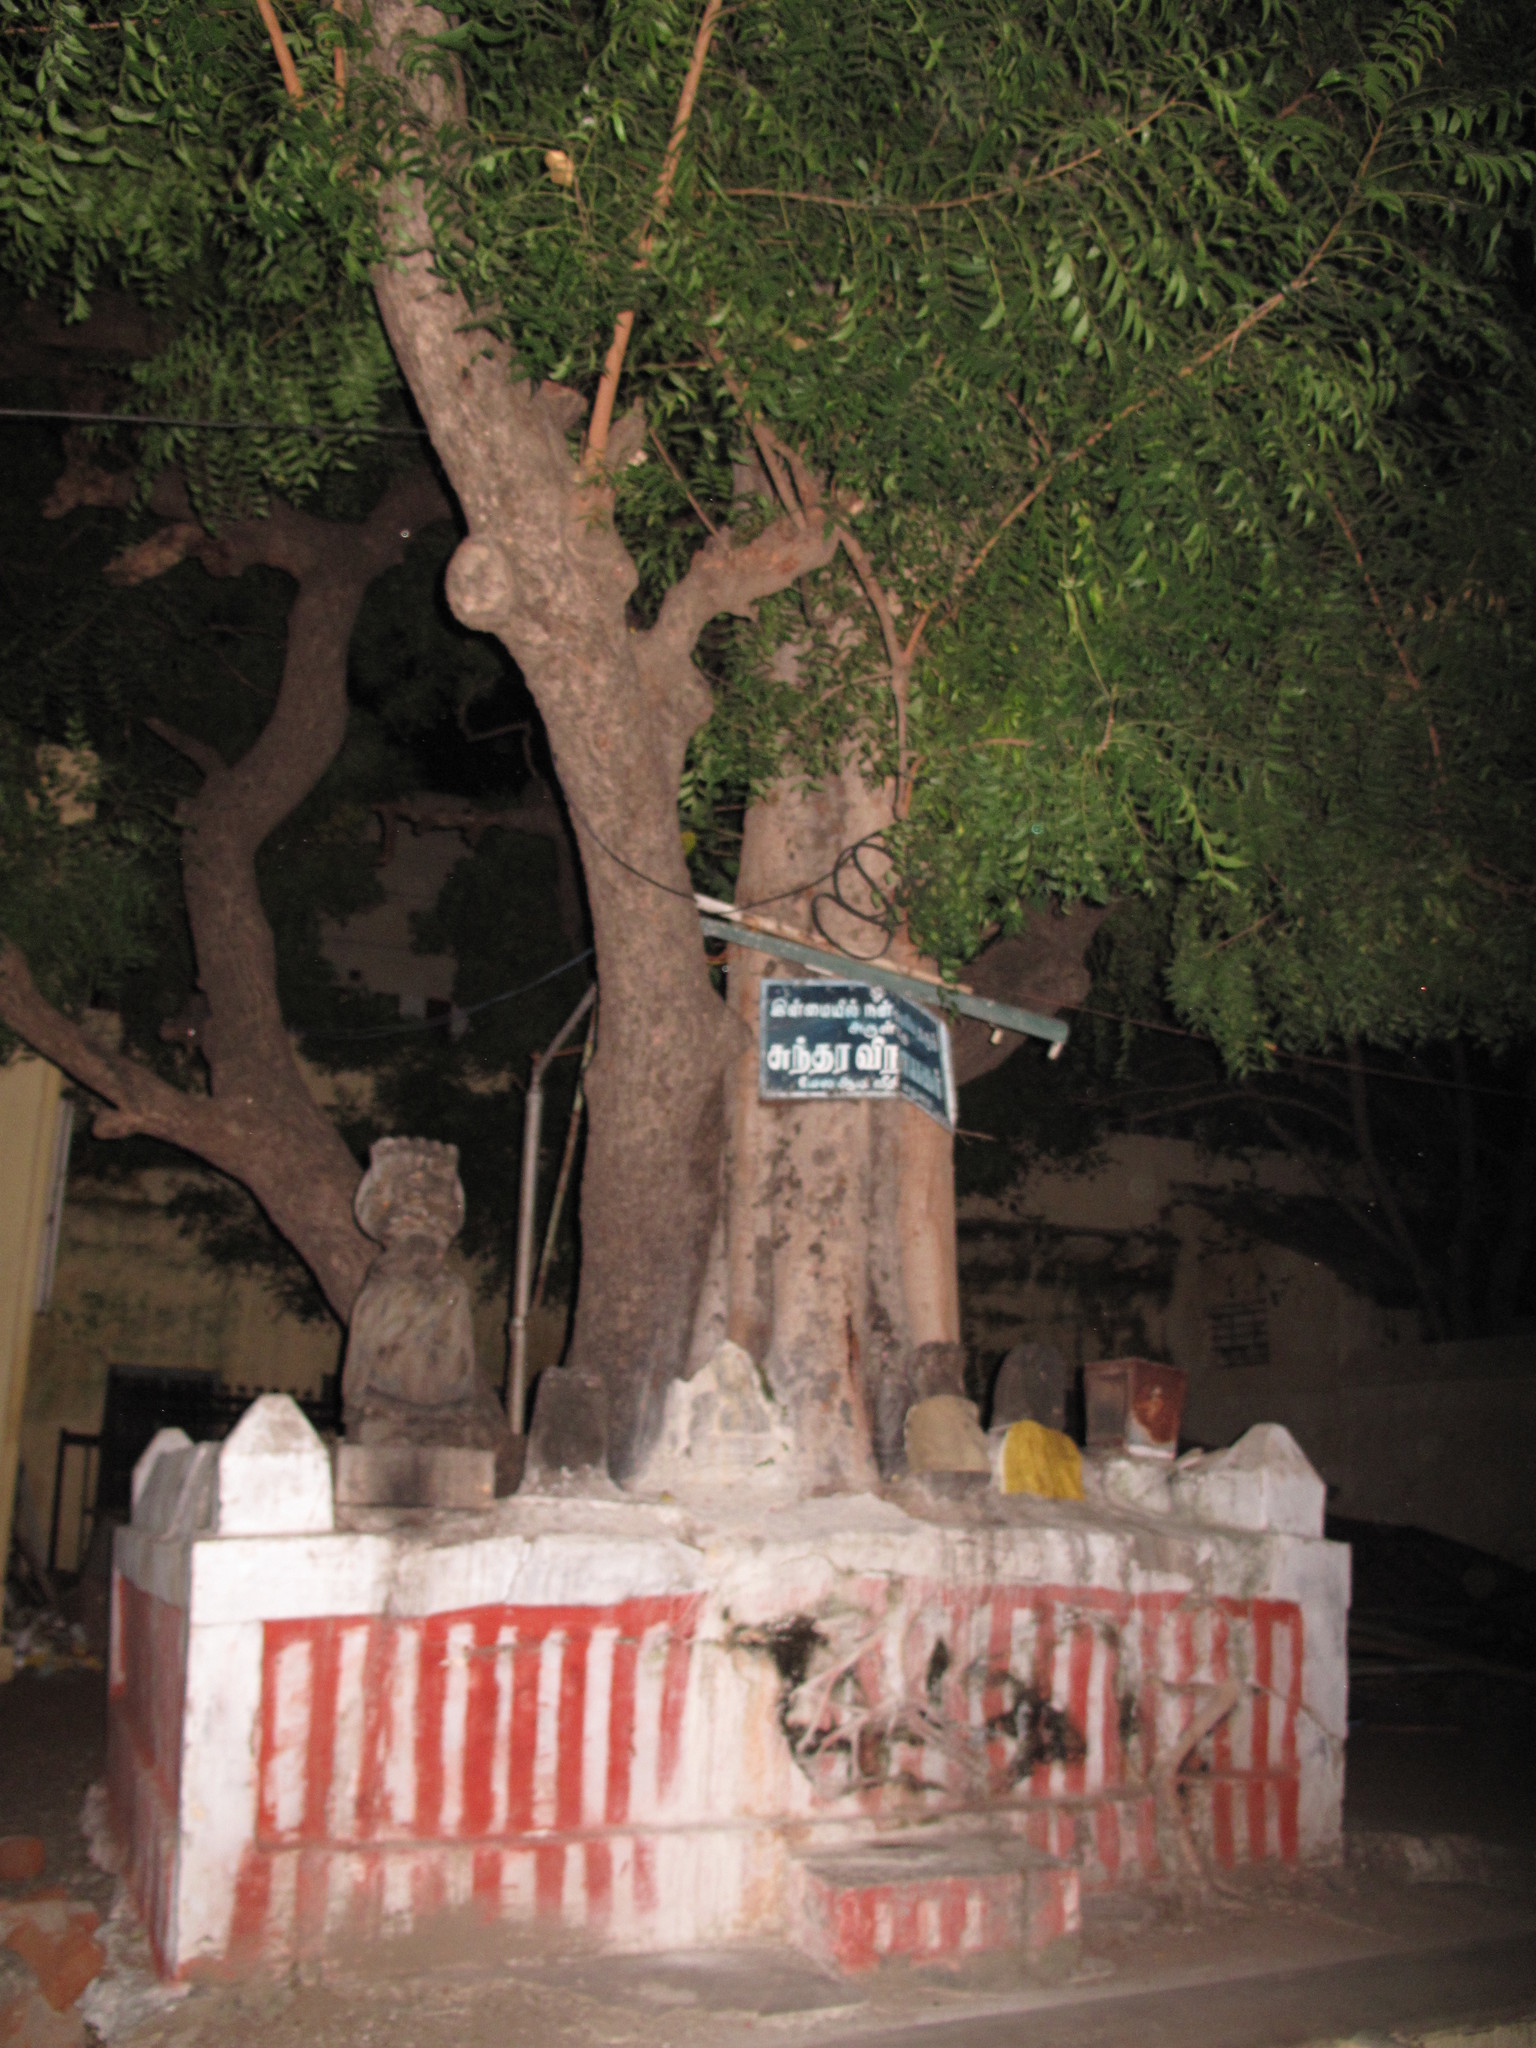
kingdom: Plantae
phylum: Tracheophyta
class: Magnoliopsida
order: Sapindales
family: Meliaceae
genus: Azadirachta
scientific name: Azadirachta indica
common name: Neem
